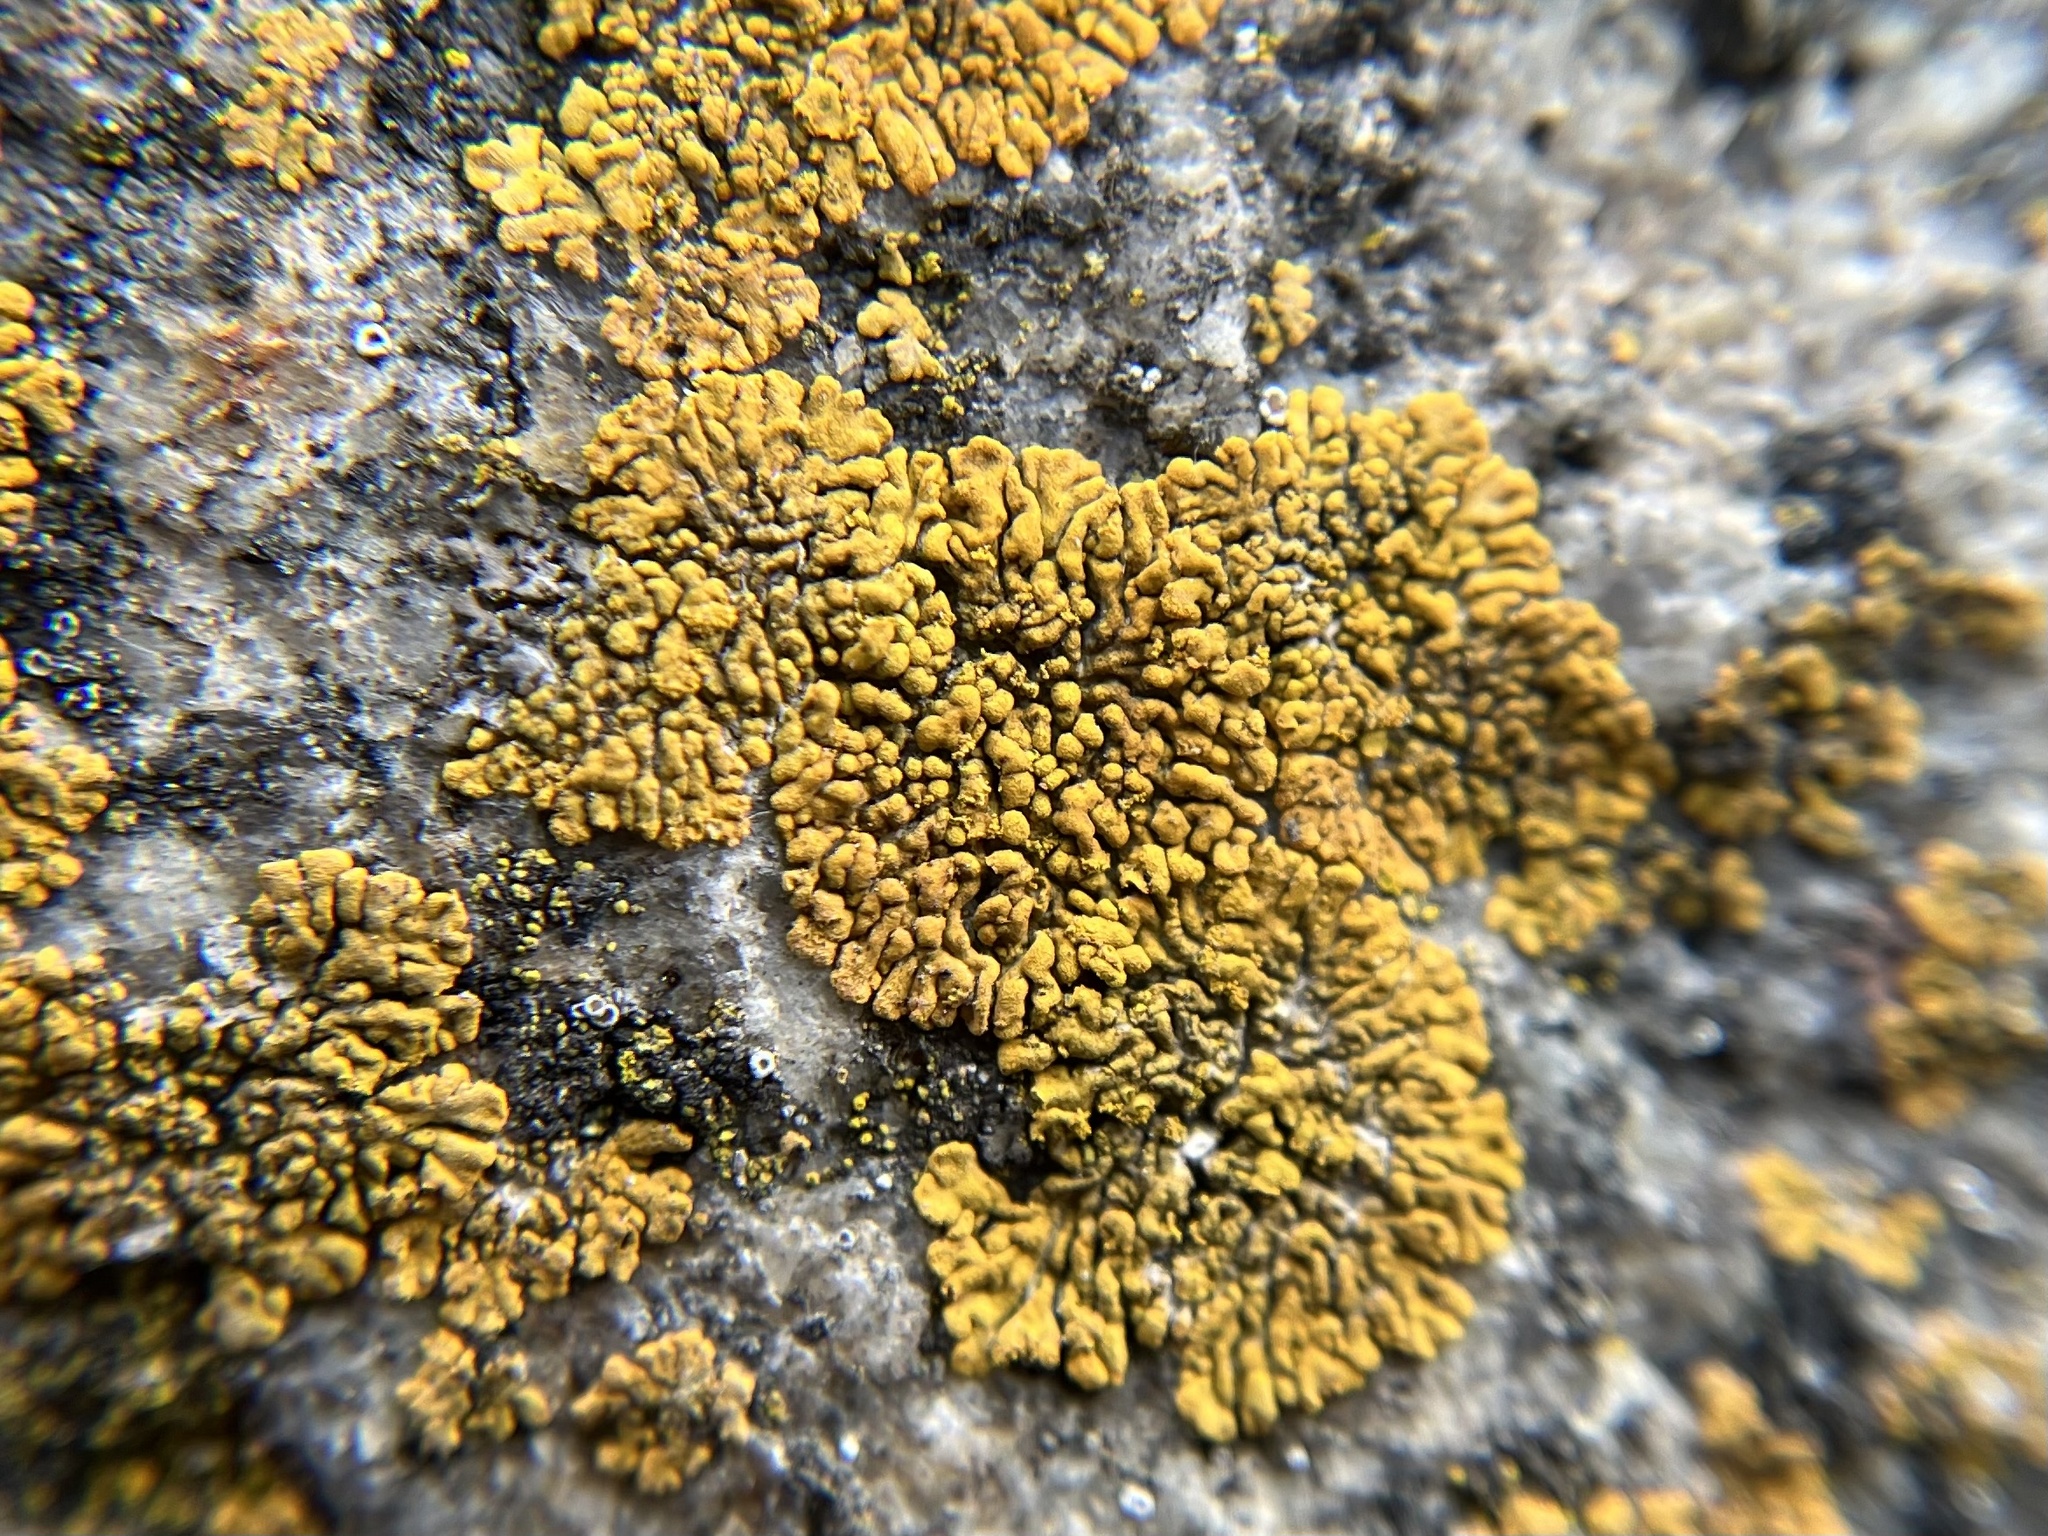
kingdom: Fungi
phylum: Ascomycota
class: Lecanoromycetes
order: Teloschistales
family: Teloschistaceae
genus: Calogaya
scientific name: Calogaya decipiens
